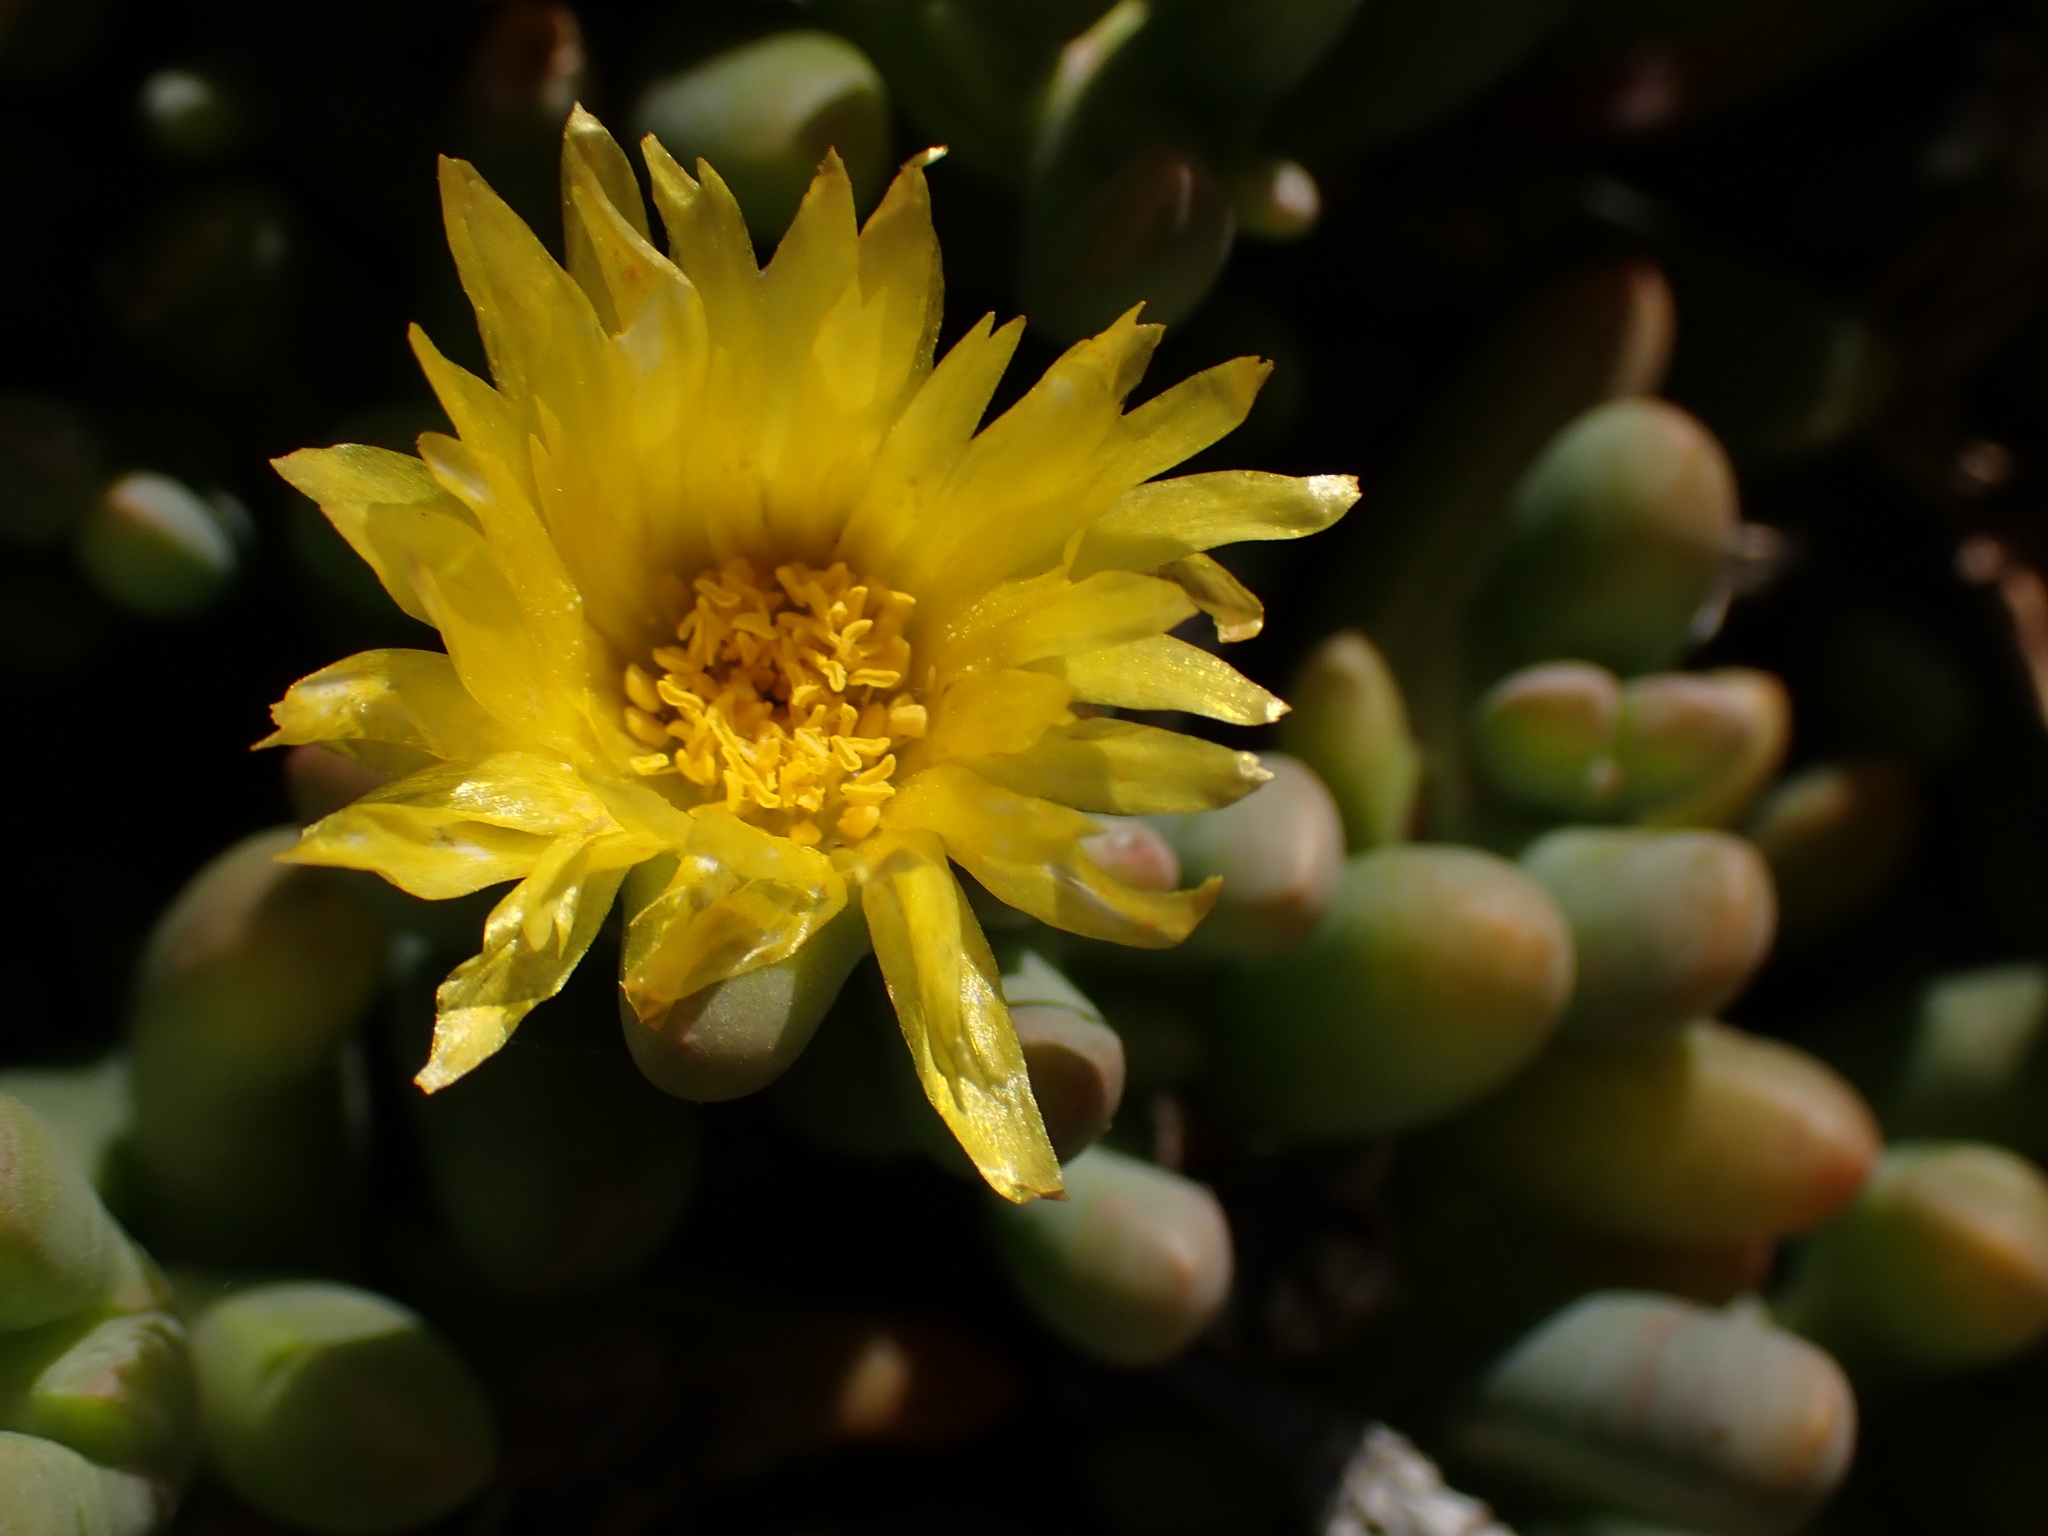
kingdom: Plantae
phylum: Tracheophyta
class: Magnoliopsida
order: Caryophyllales
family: Aizoaceae
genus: Malephora
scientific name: Malephora lutea
